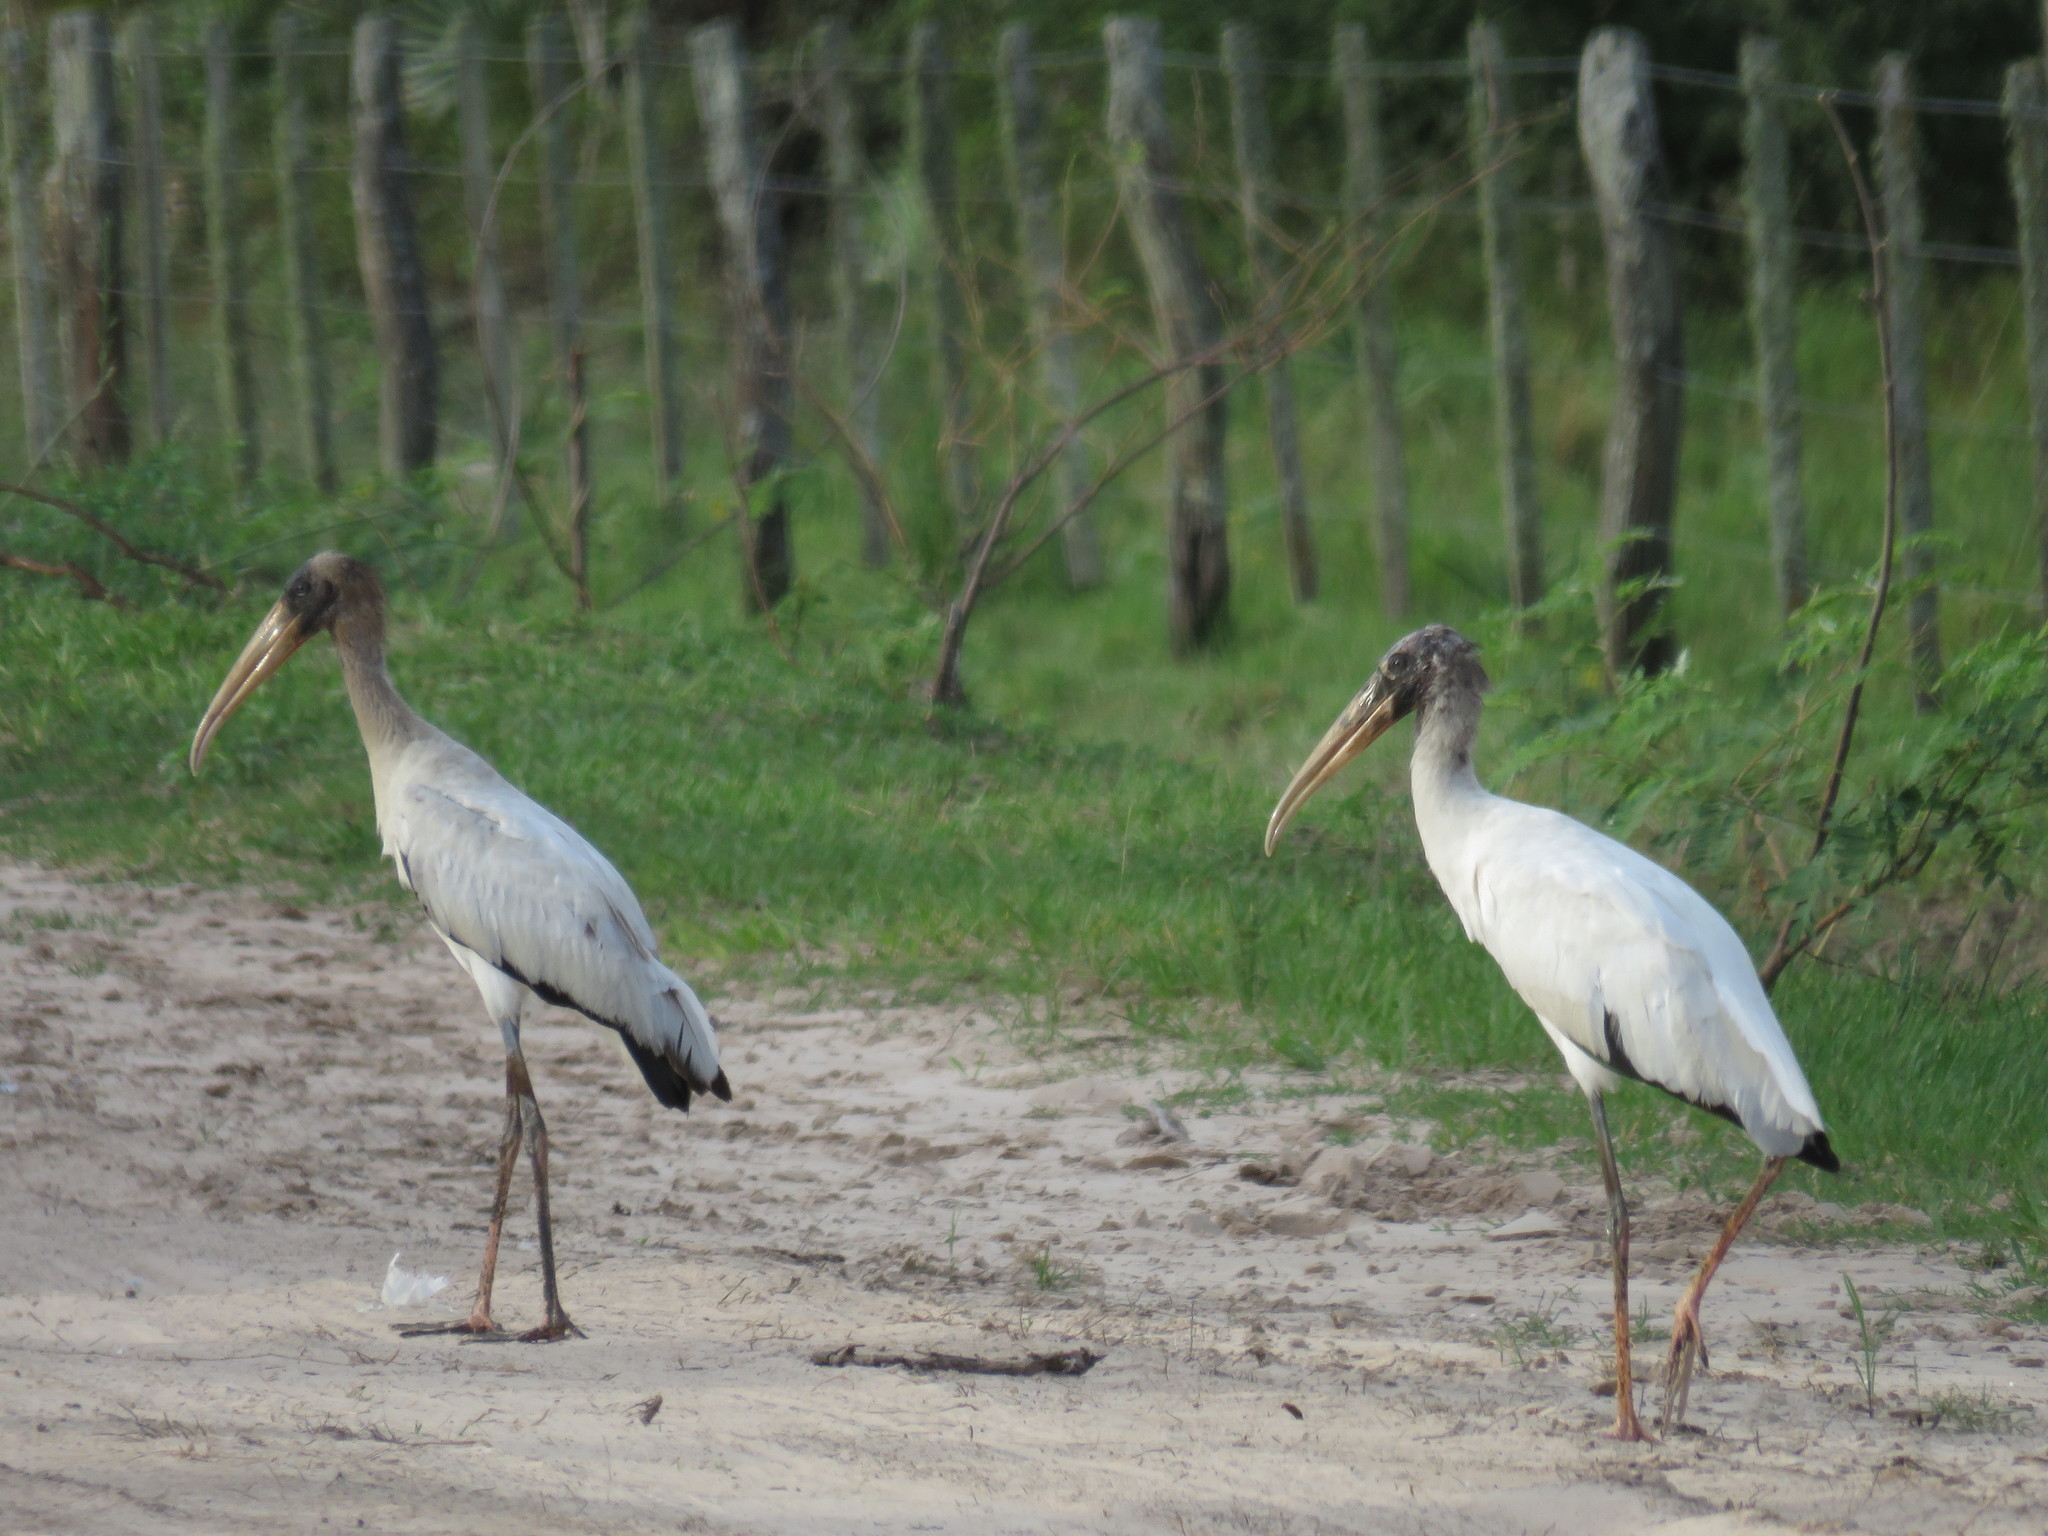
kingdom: Animalia
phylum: Chordata
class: Aves
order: Ciconiiformes
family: Ciconiidae
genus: Mycteria
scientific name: Mycteria americana
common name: Wood stork
